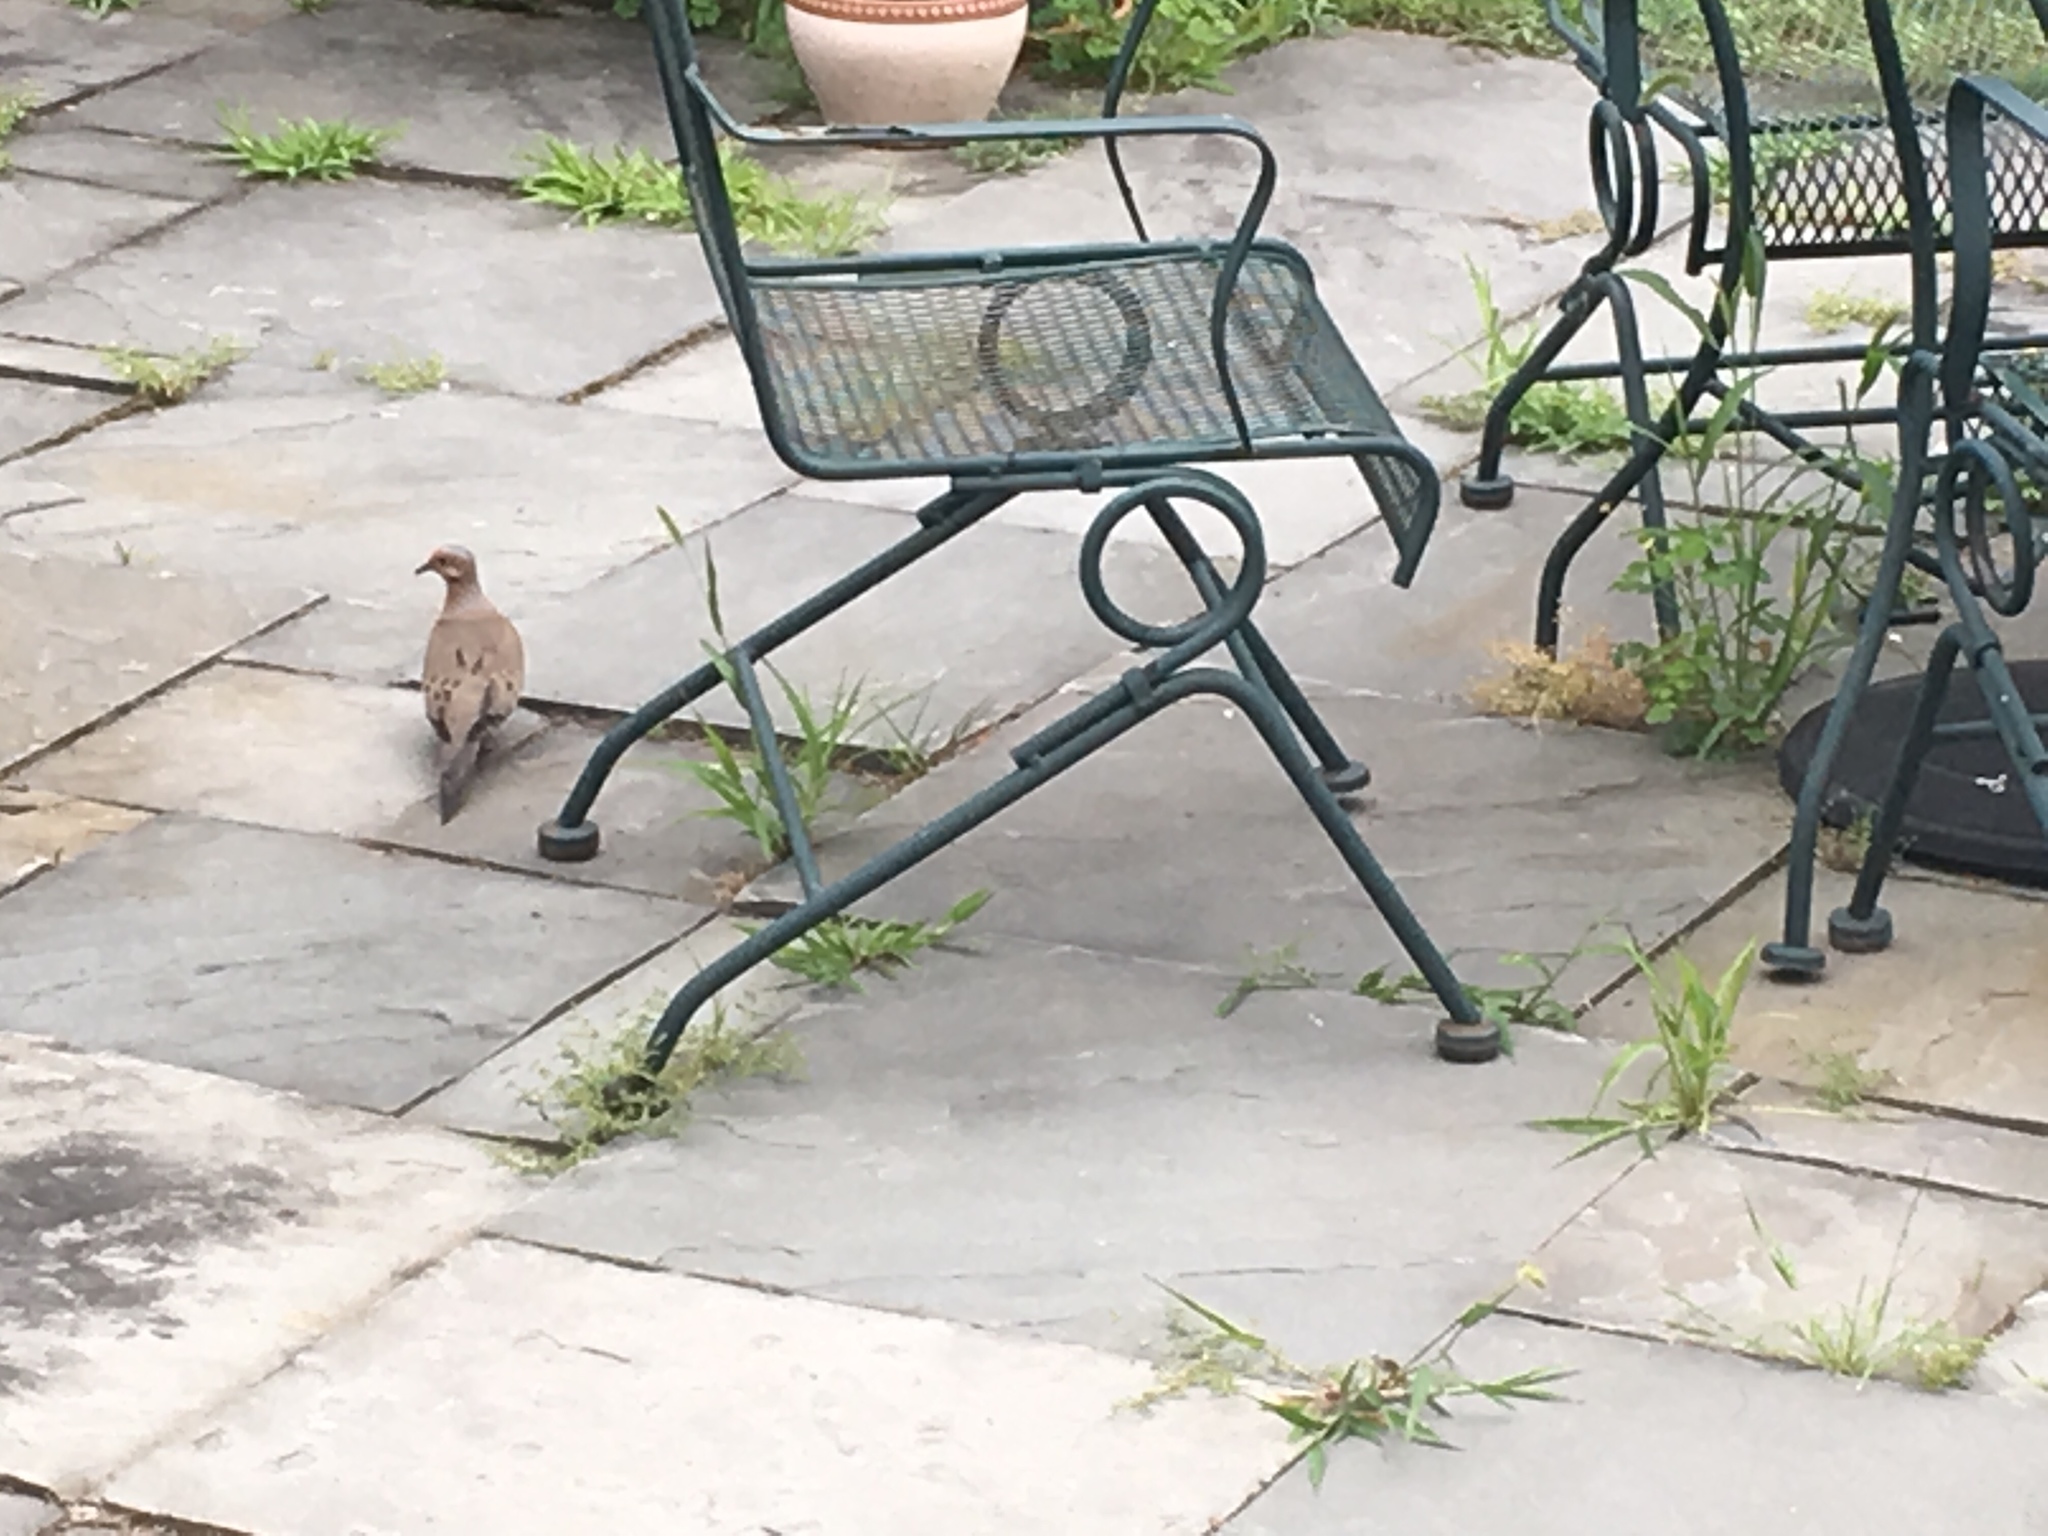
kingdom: Animalia
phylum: Chordata
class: Aves
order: Columbiformes
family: Columbidae
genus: Zenaida
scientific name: Zenaida macroura
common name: Mourning dove
